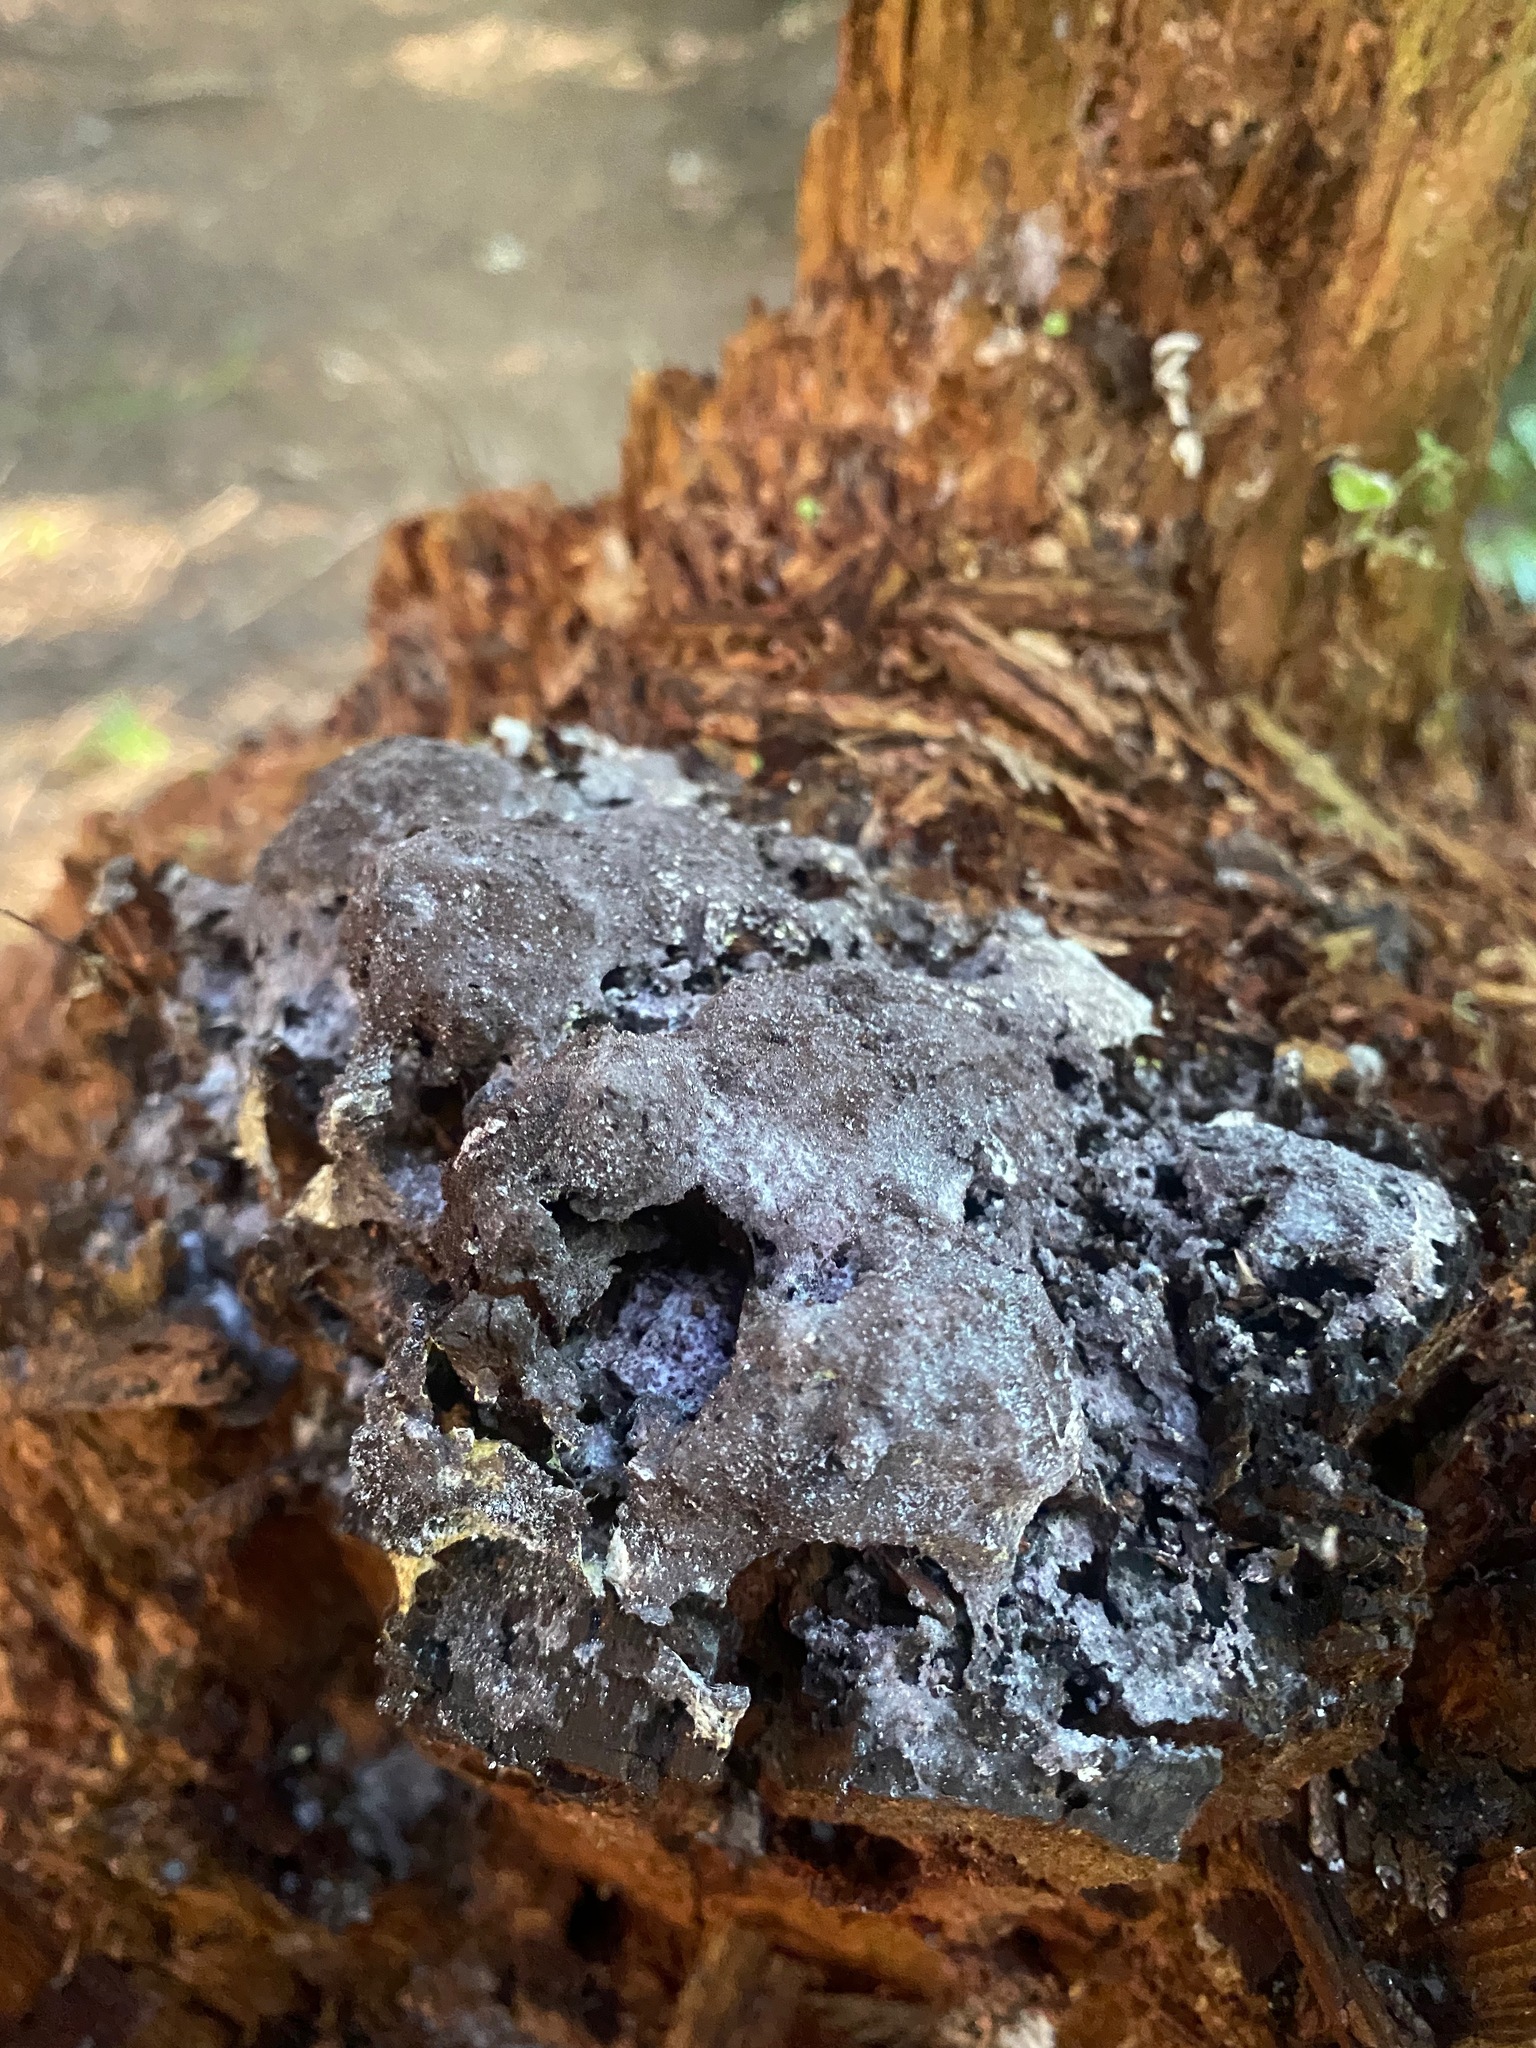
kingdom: Fungi
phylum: Ascomycota
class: Sordariomycetes
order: Hypocreales
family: Bionectriaceae
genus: Nectriopsis
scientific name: Nectriopsis violacea
